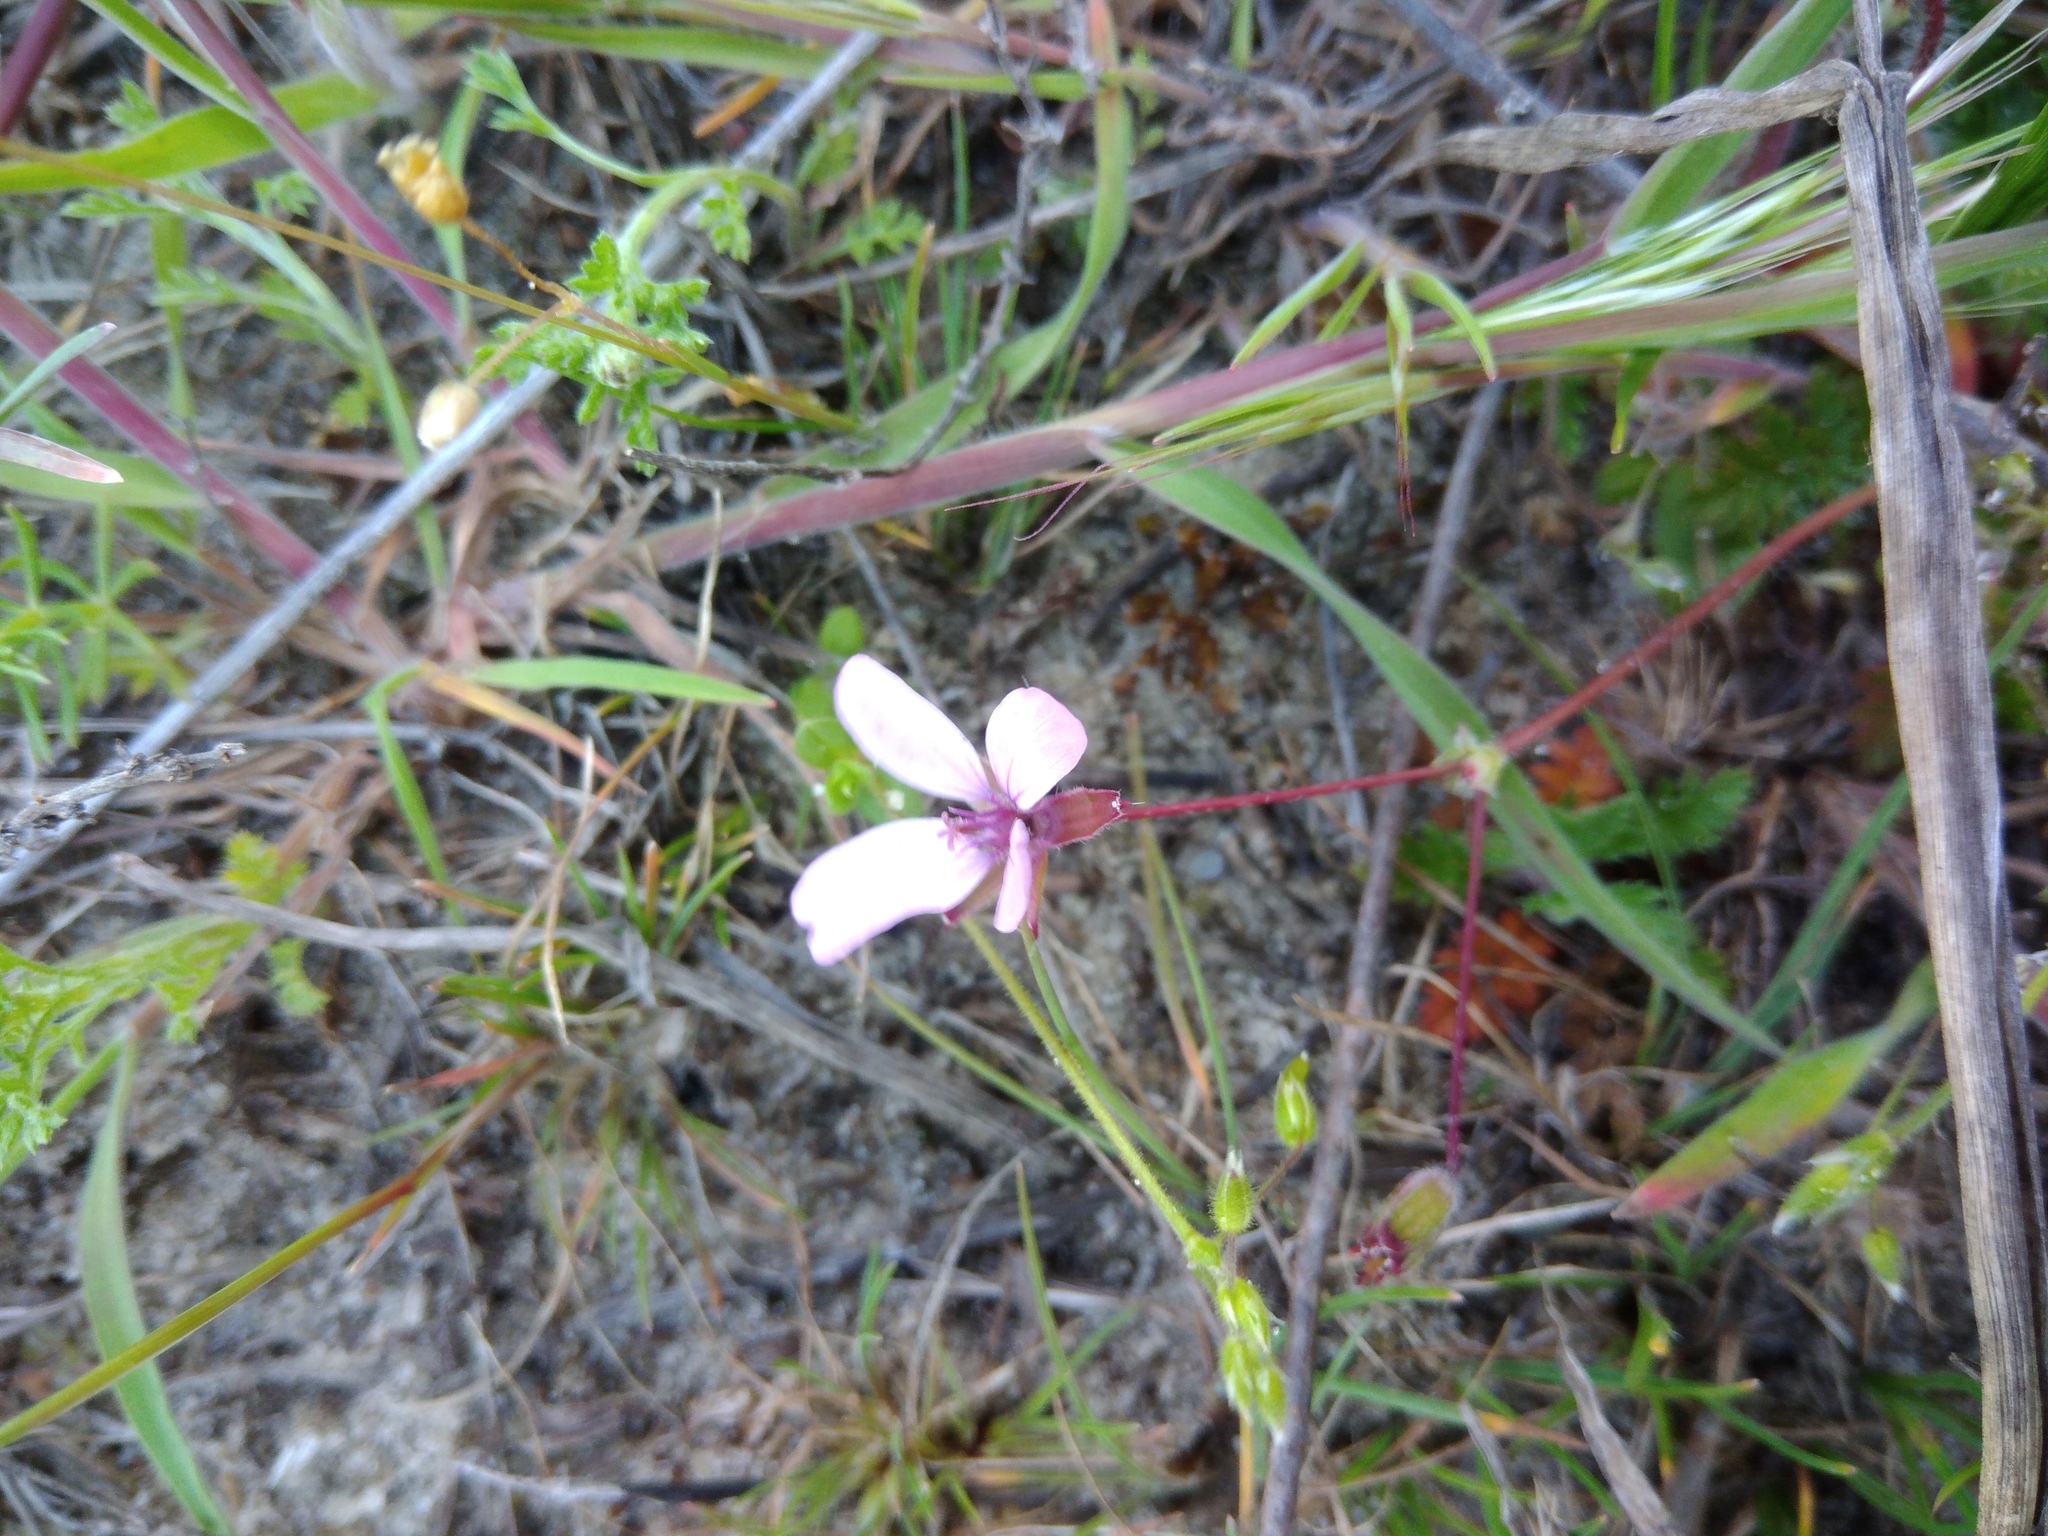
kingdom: Plantae
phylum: Tracheophyta
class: Magnoliopsida
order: Geraniales
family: Geraniaceae
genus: Erodium
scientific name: Erodium cicutarium
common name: Common stork's-bill
